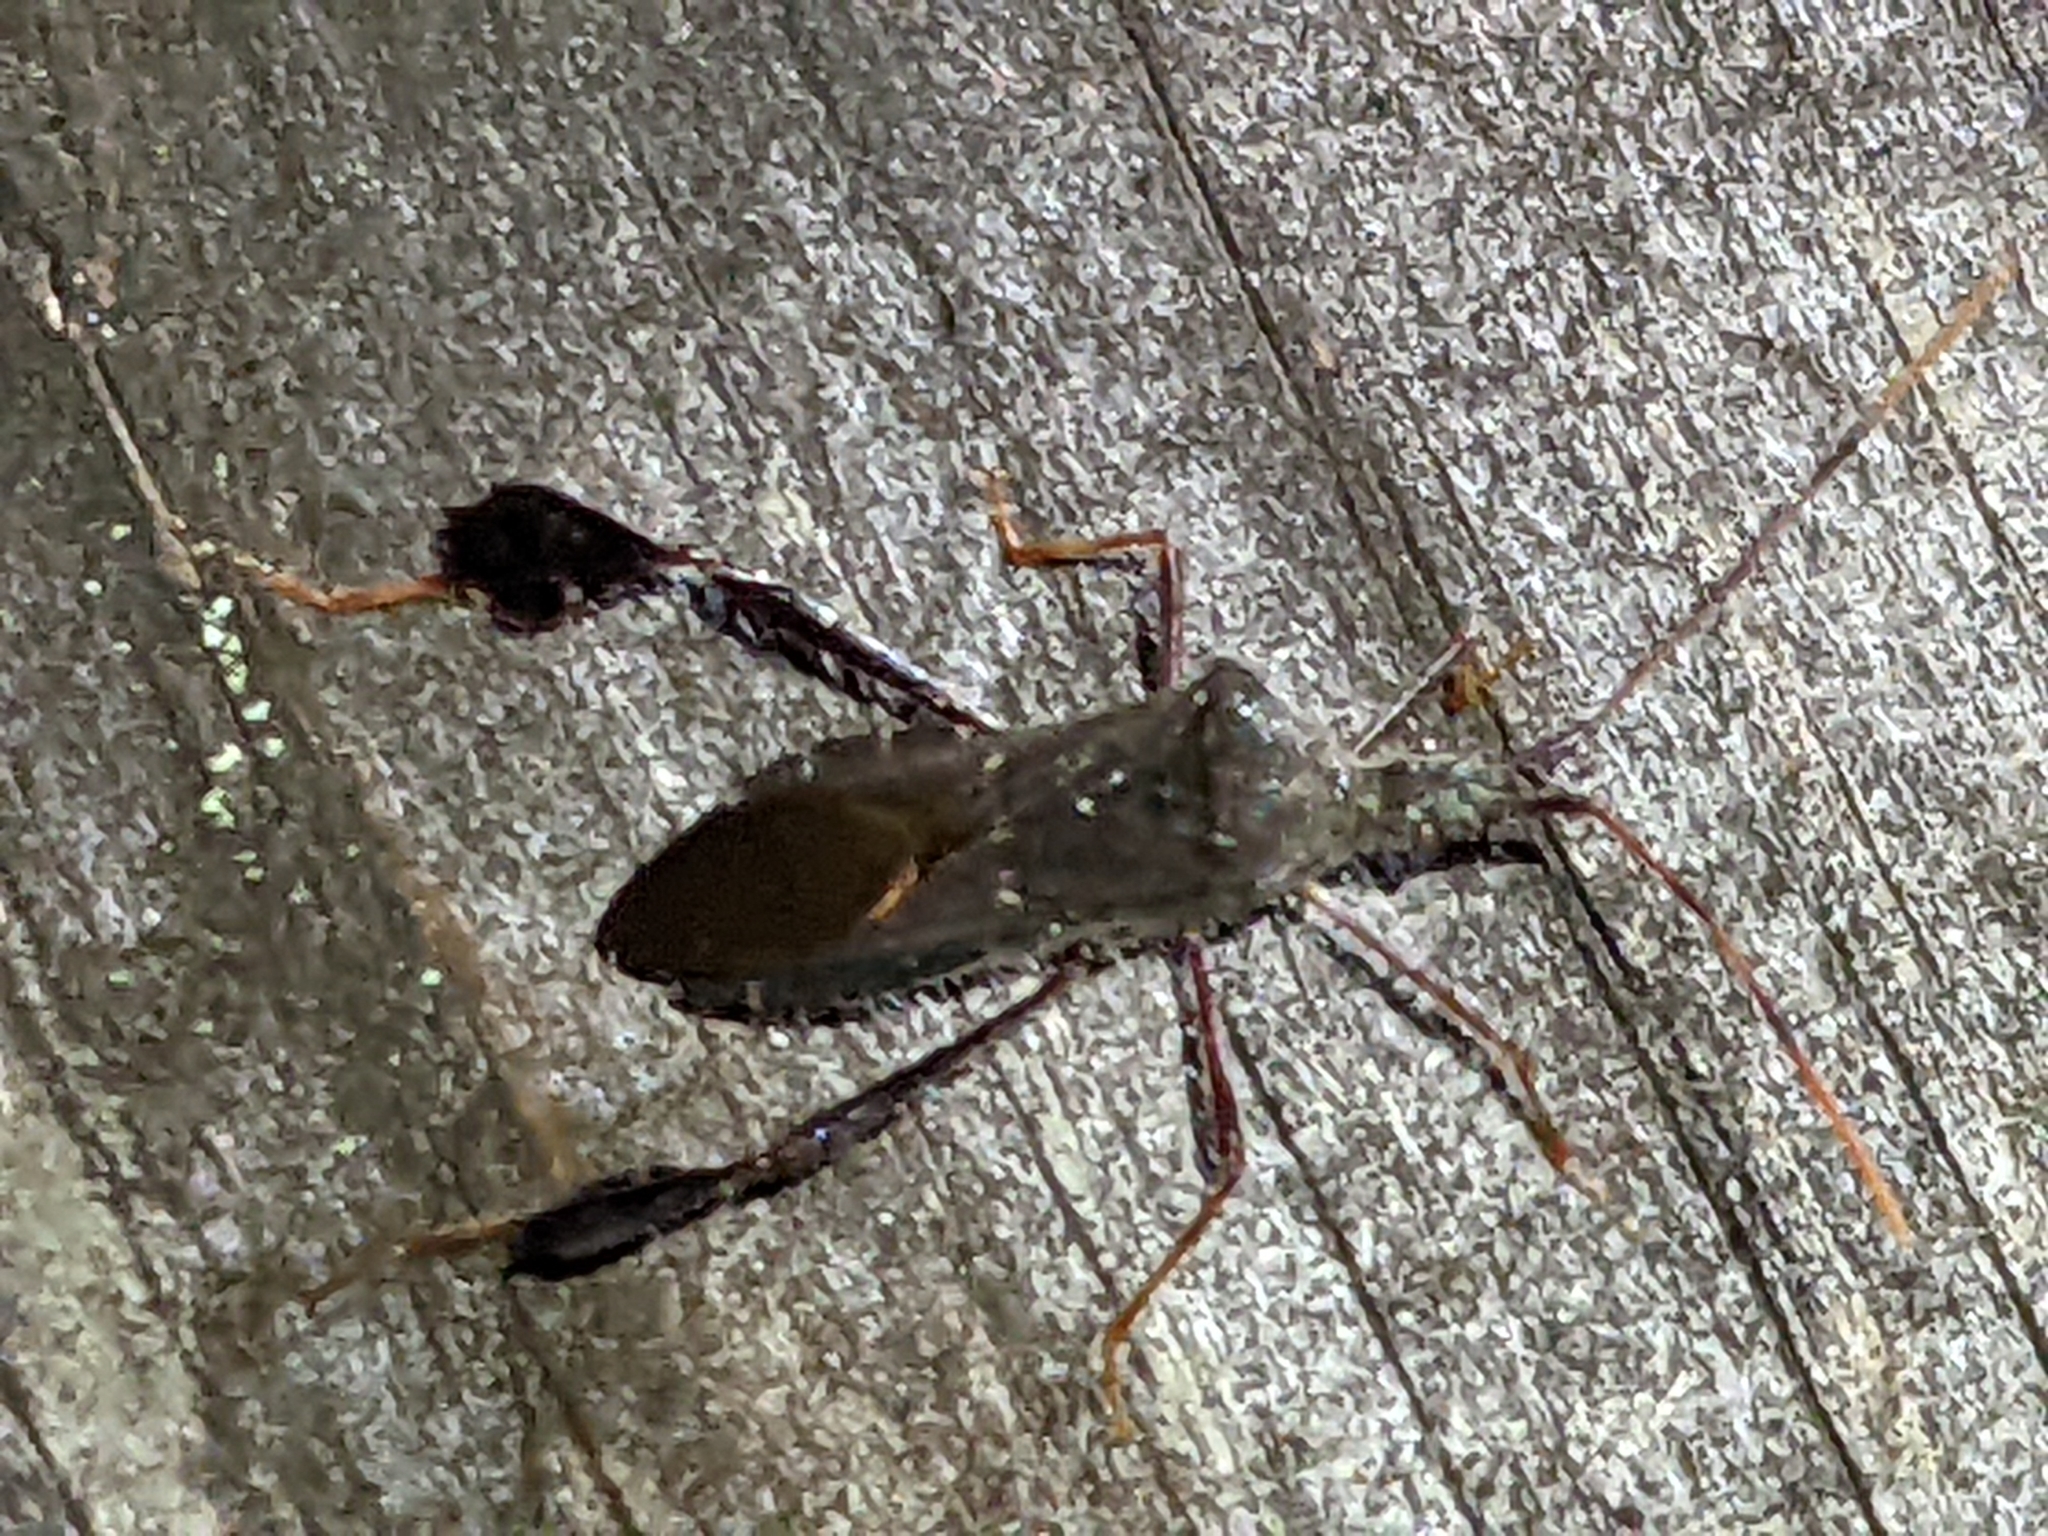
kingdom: Animalia
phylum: Arthropoda
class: Insecta
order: Hemiptera
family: Coreidae
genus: Leptoglossus
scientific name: Leptoglossus oppositus
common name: Northern leaf-footed bug
